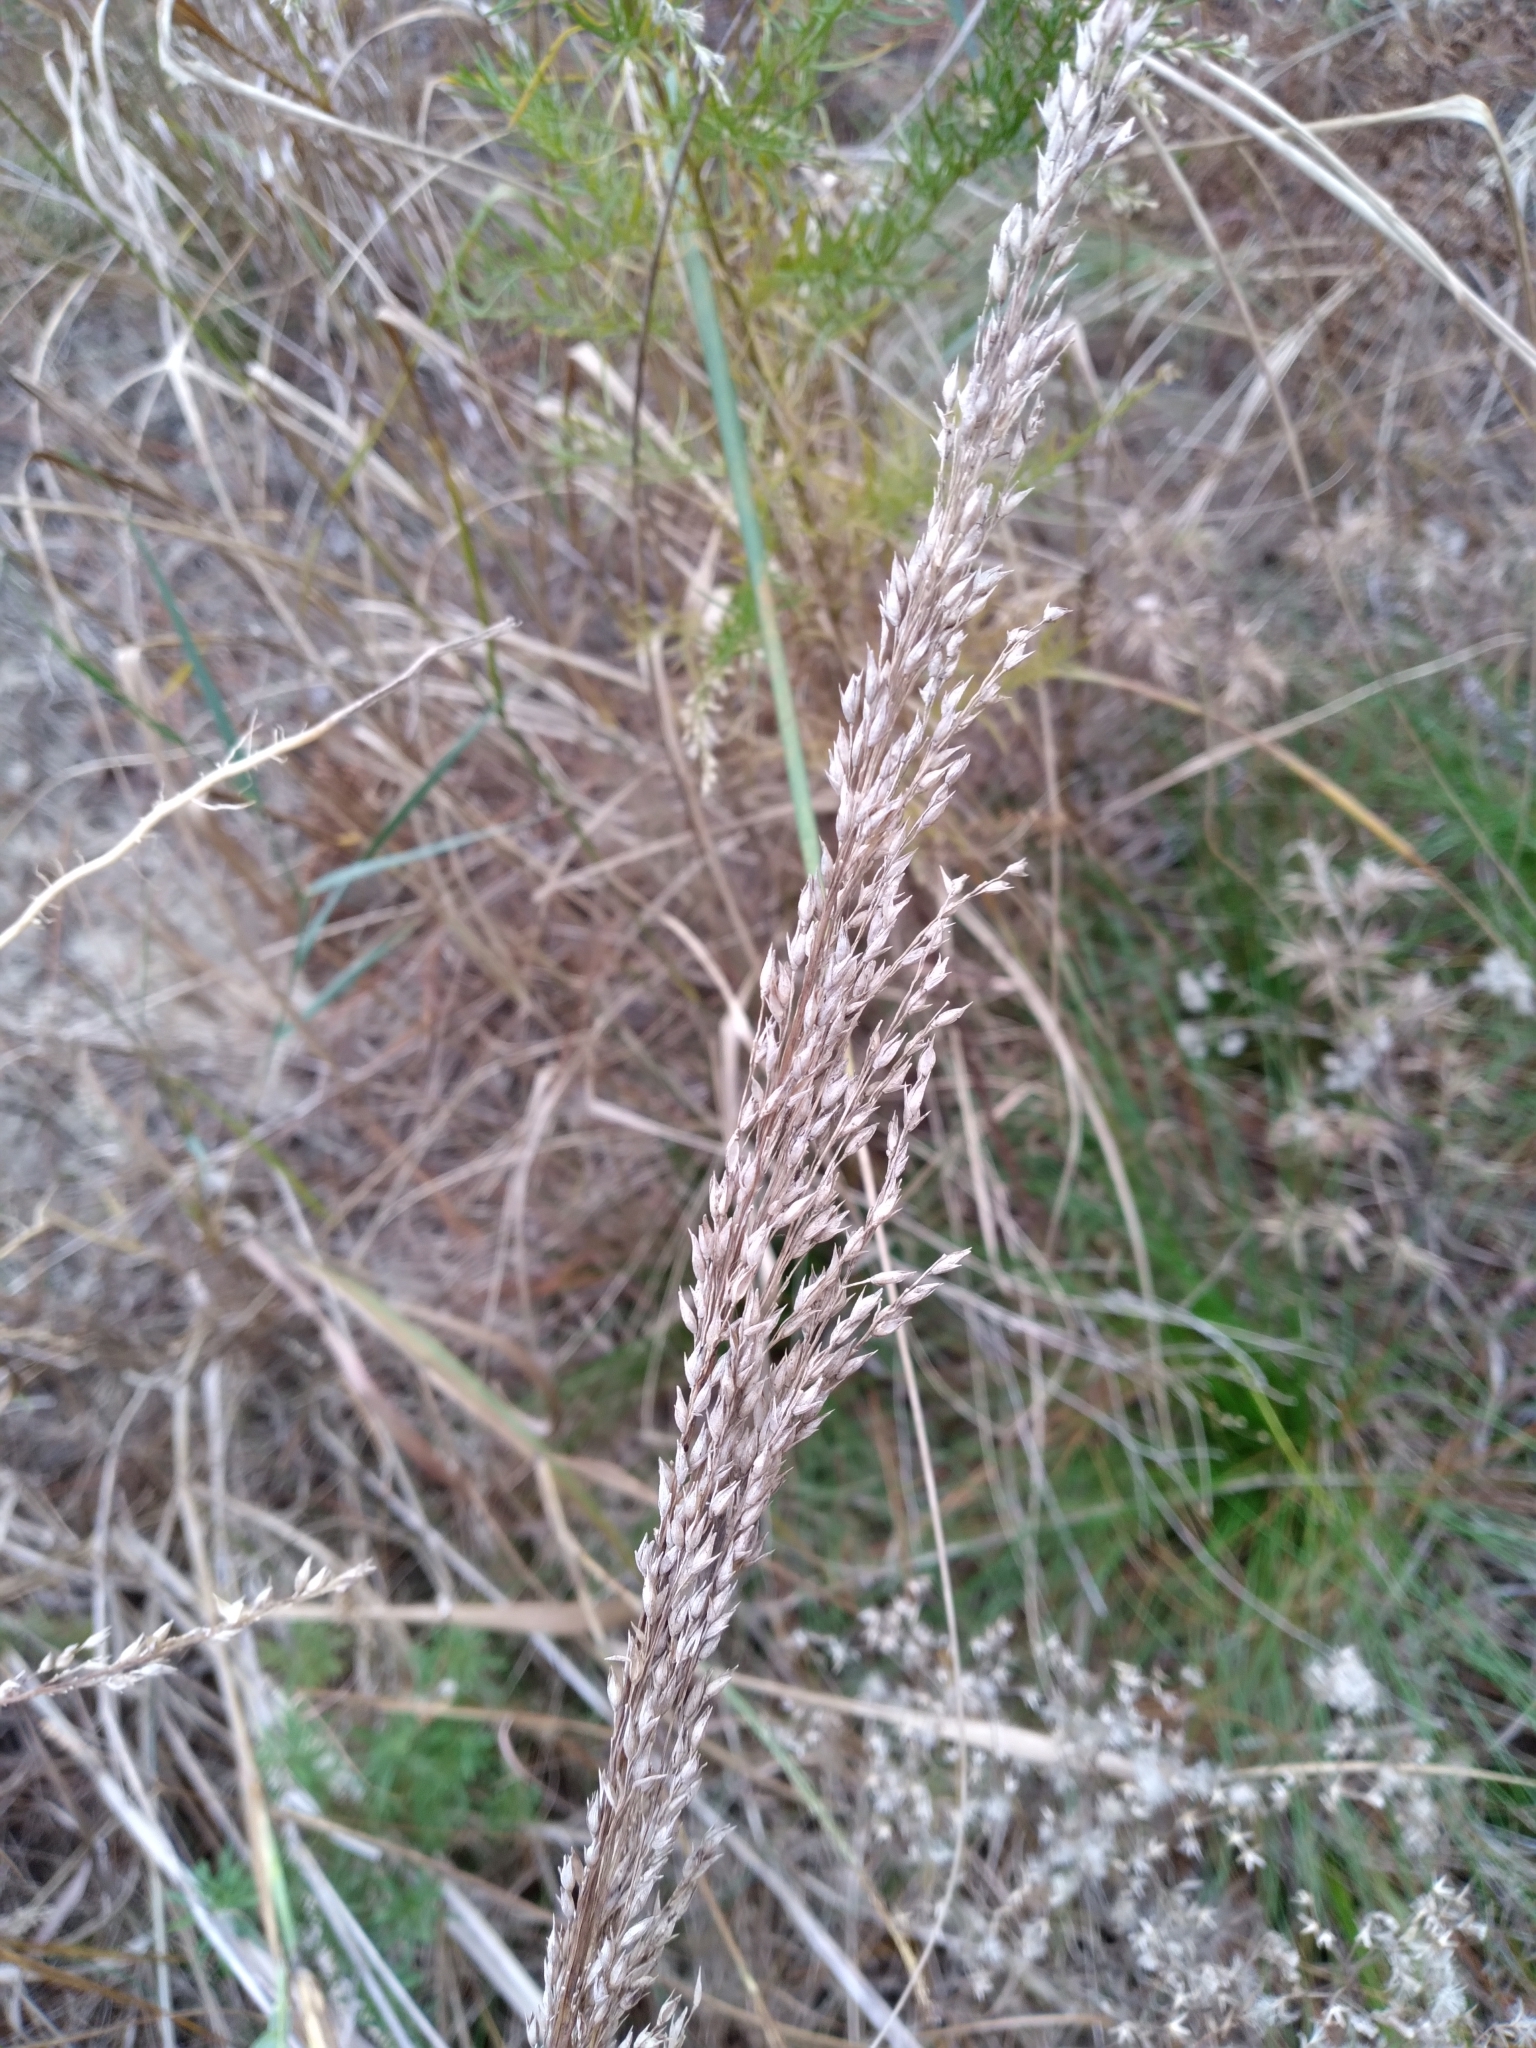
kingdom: Plantae
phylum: Tracheophyta
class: Liliopsida
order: Poales
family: Poaceae
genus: Panicum
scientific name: Panicum amarum
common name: Bitter panicum
